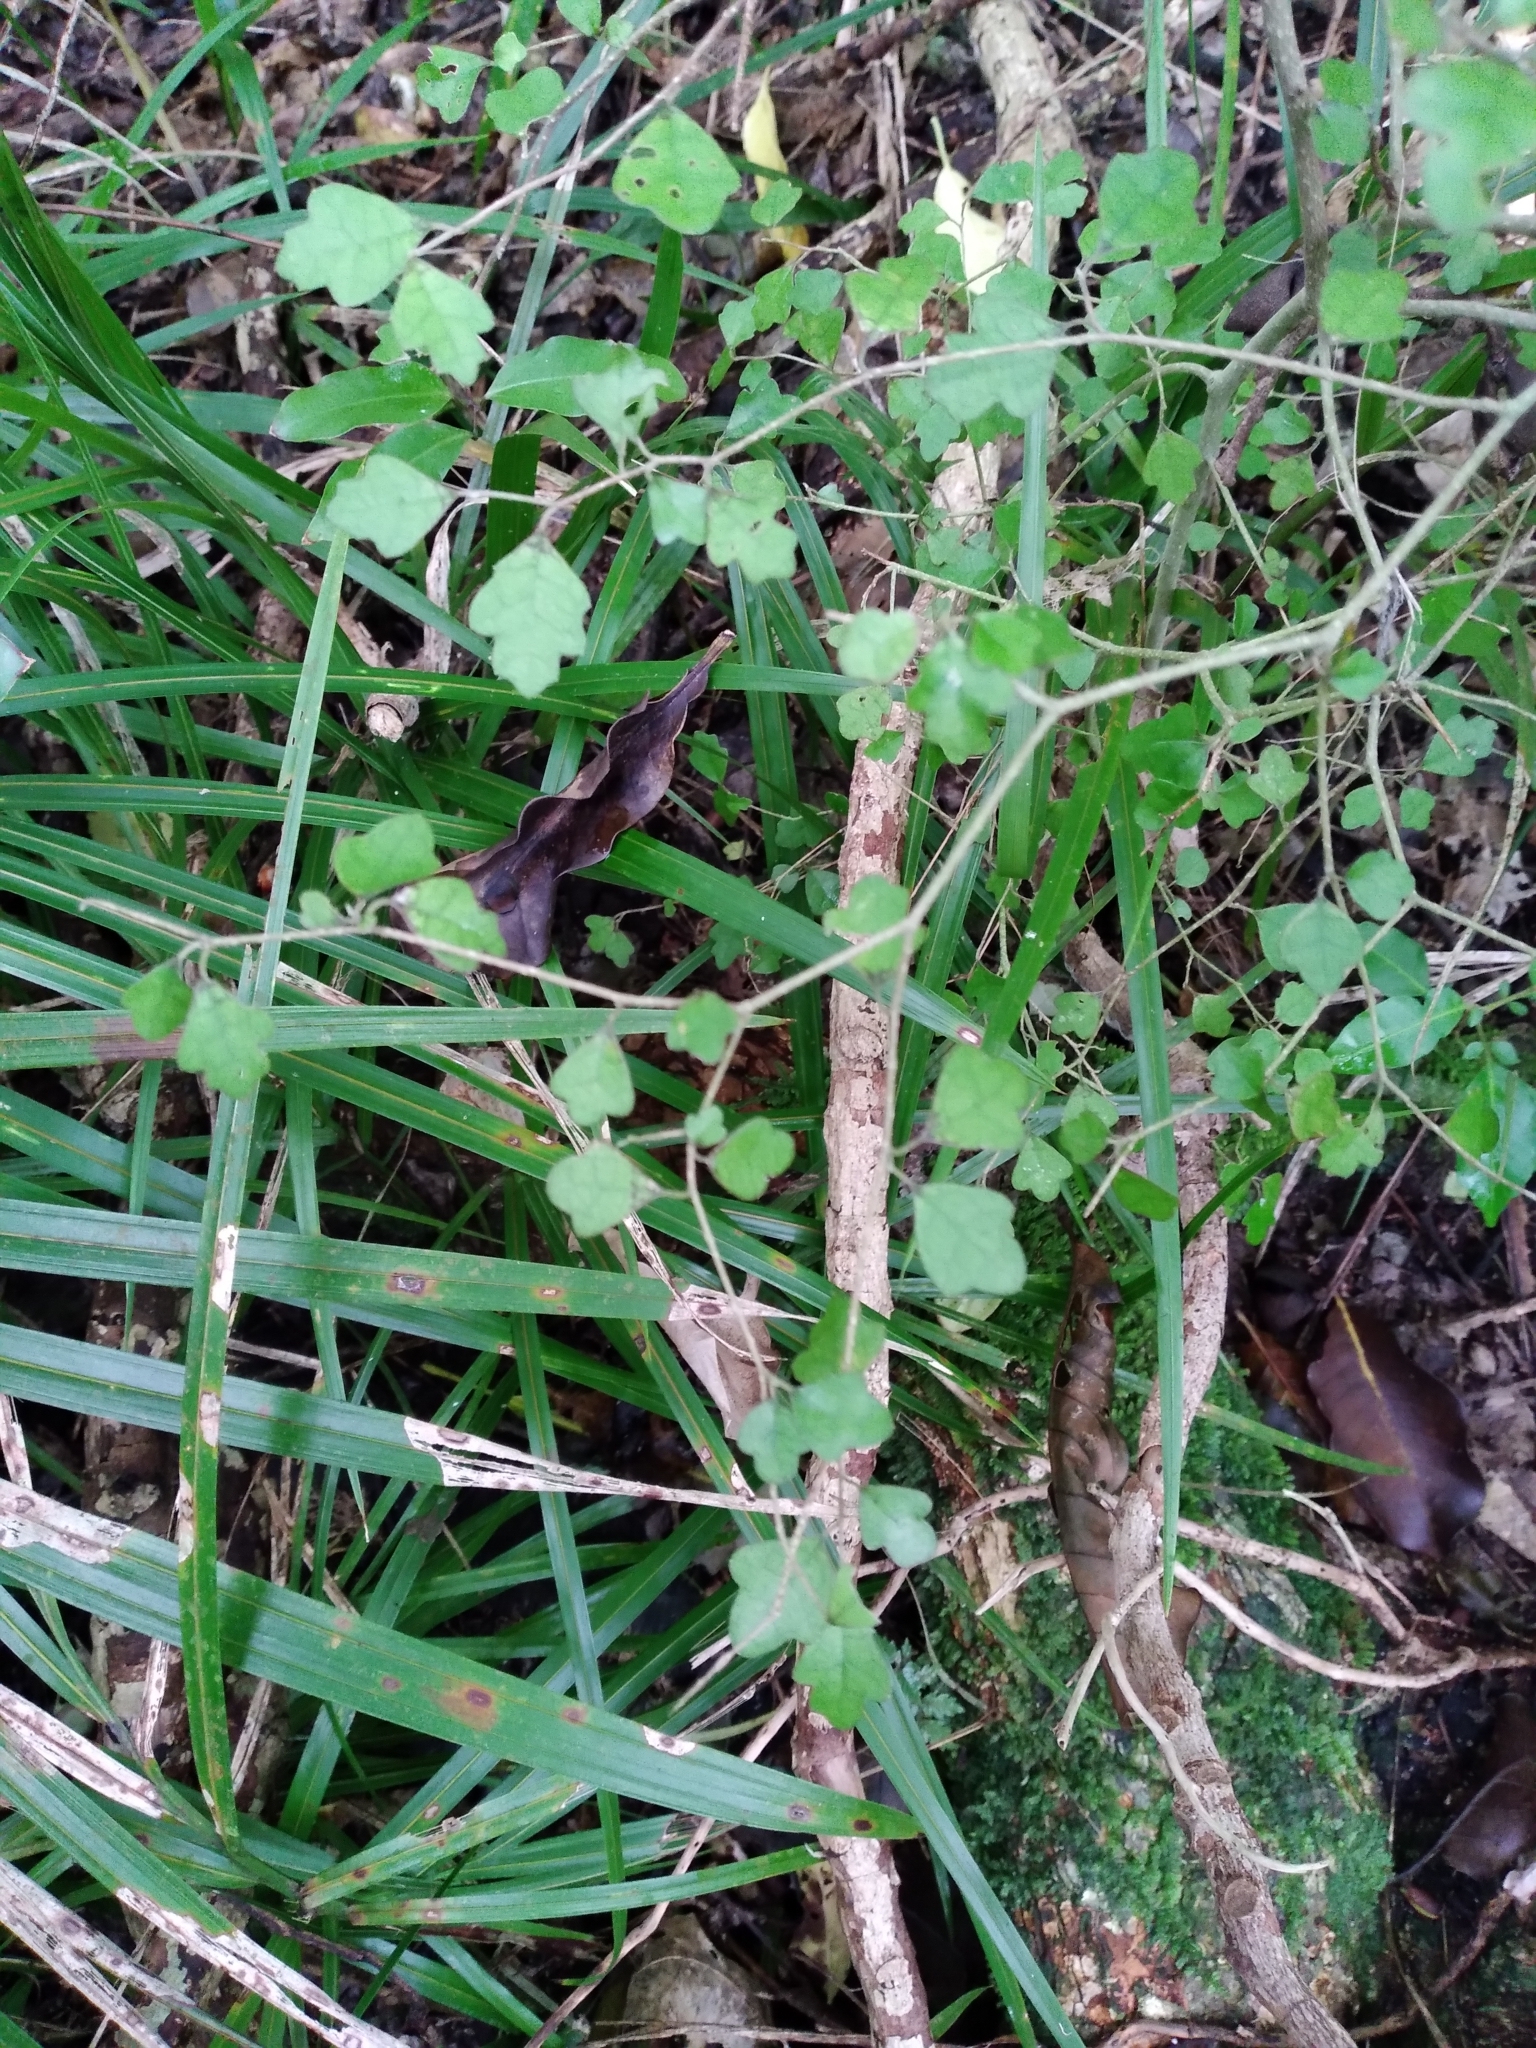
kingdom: Plantae
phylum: Tracheophyta
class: Magnoliopsida
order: Apiales
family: Pennantiaceae
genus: Pennantia
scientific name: Pennantia corymbosa
